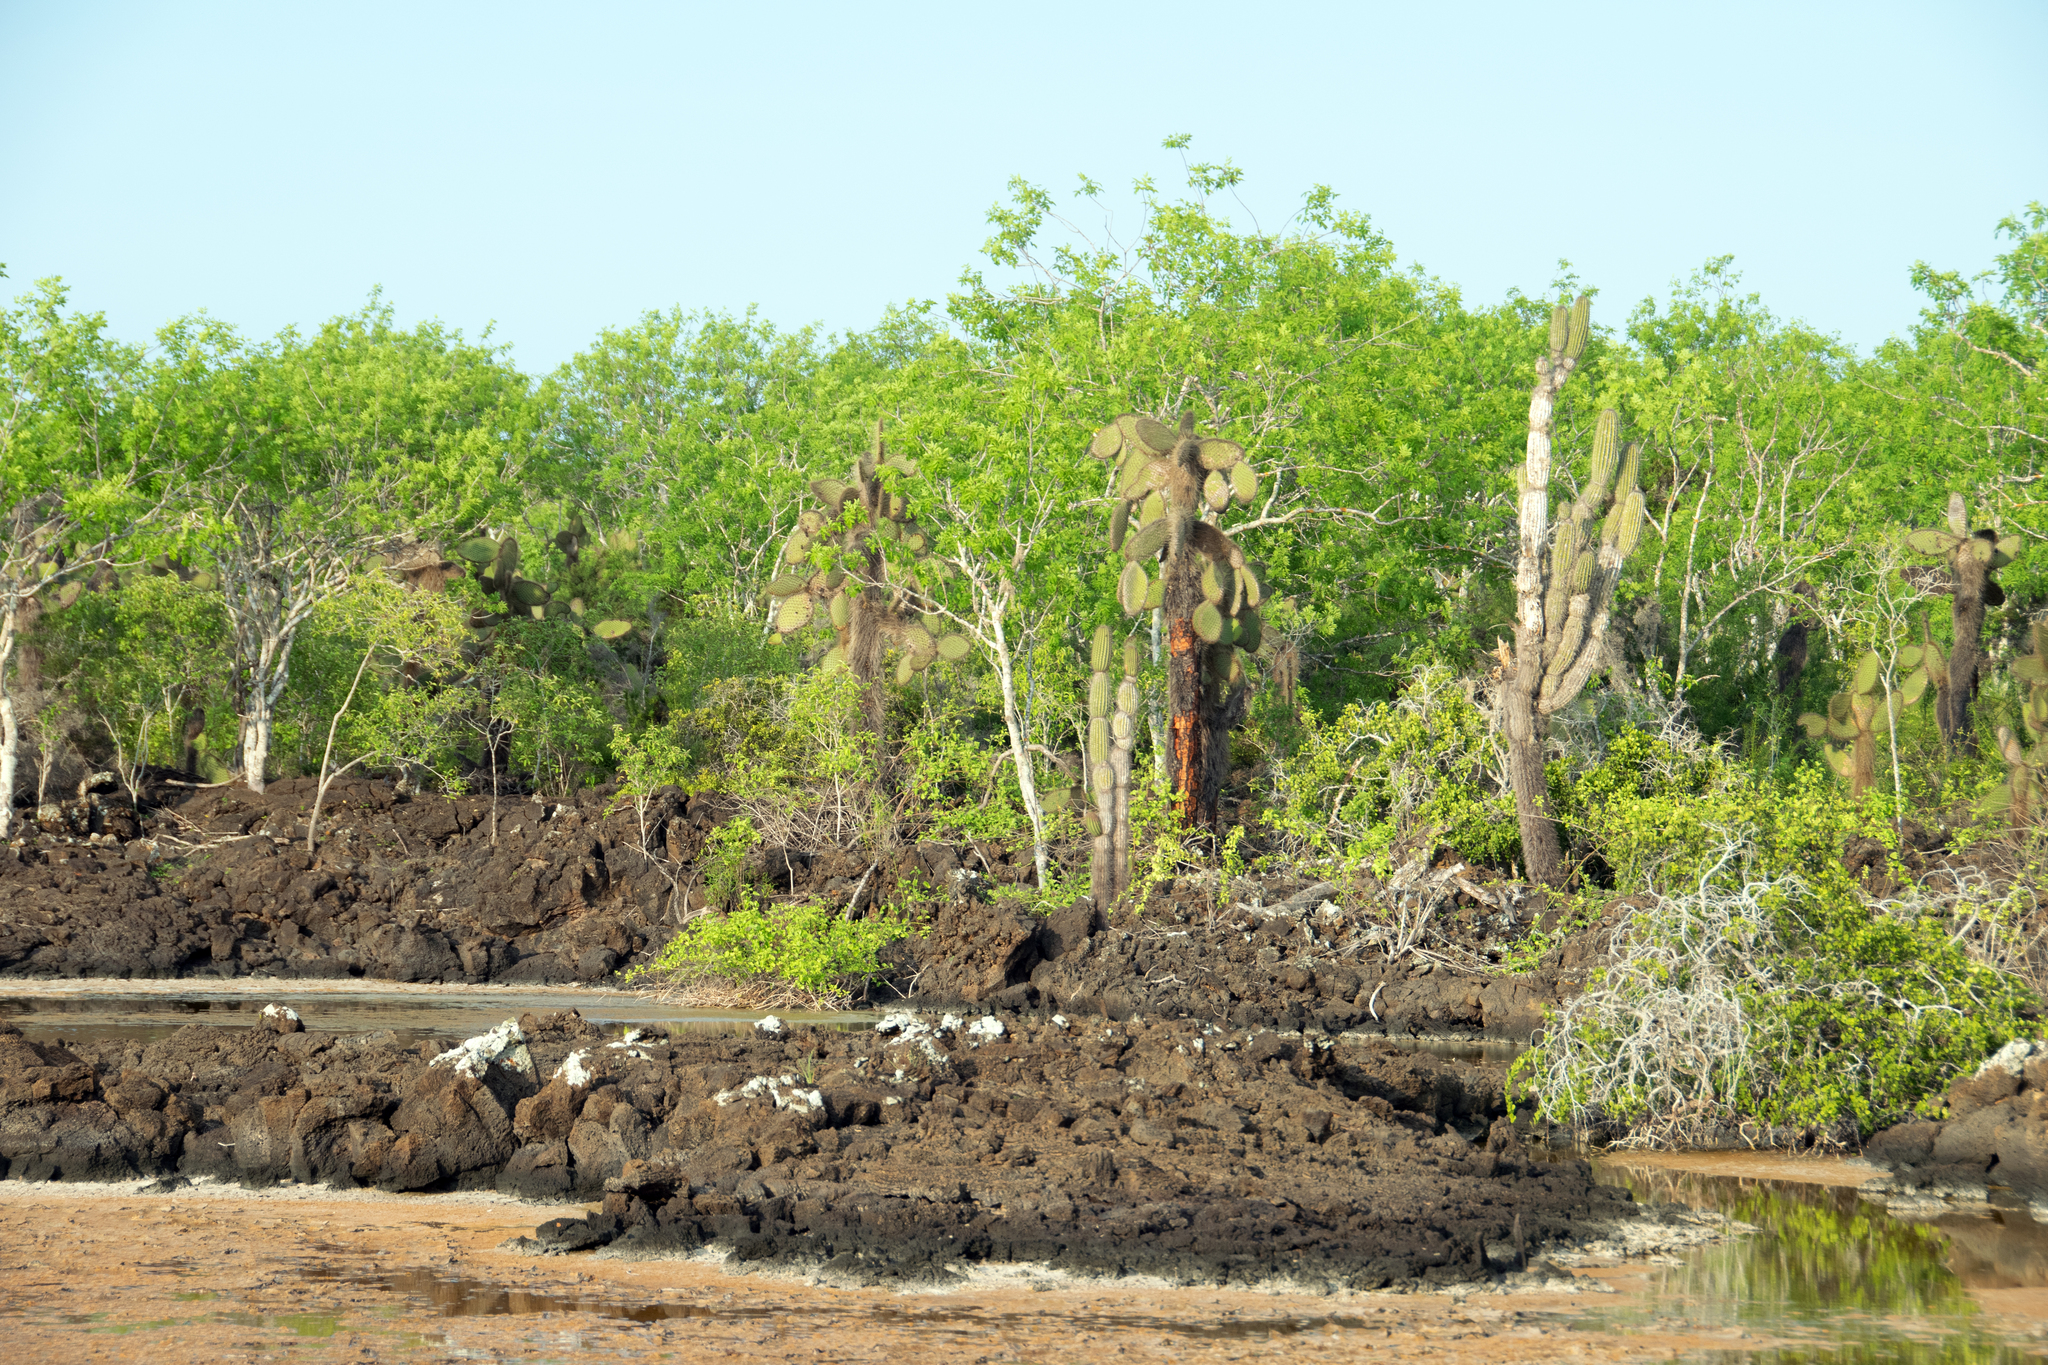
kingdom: Plantae
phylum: Tracheophyta
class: Magnoliopsida
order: Caryophyllales
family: Cactaceae
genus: Opuntia
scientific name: Opuntia galapageia
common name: Galápagos prickly pear
